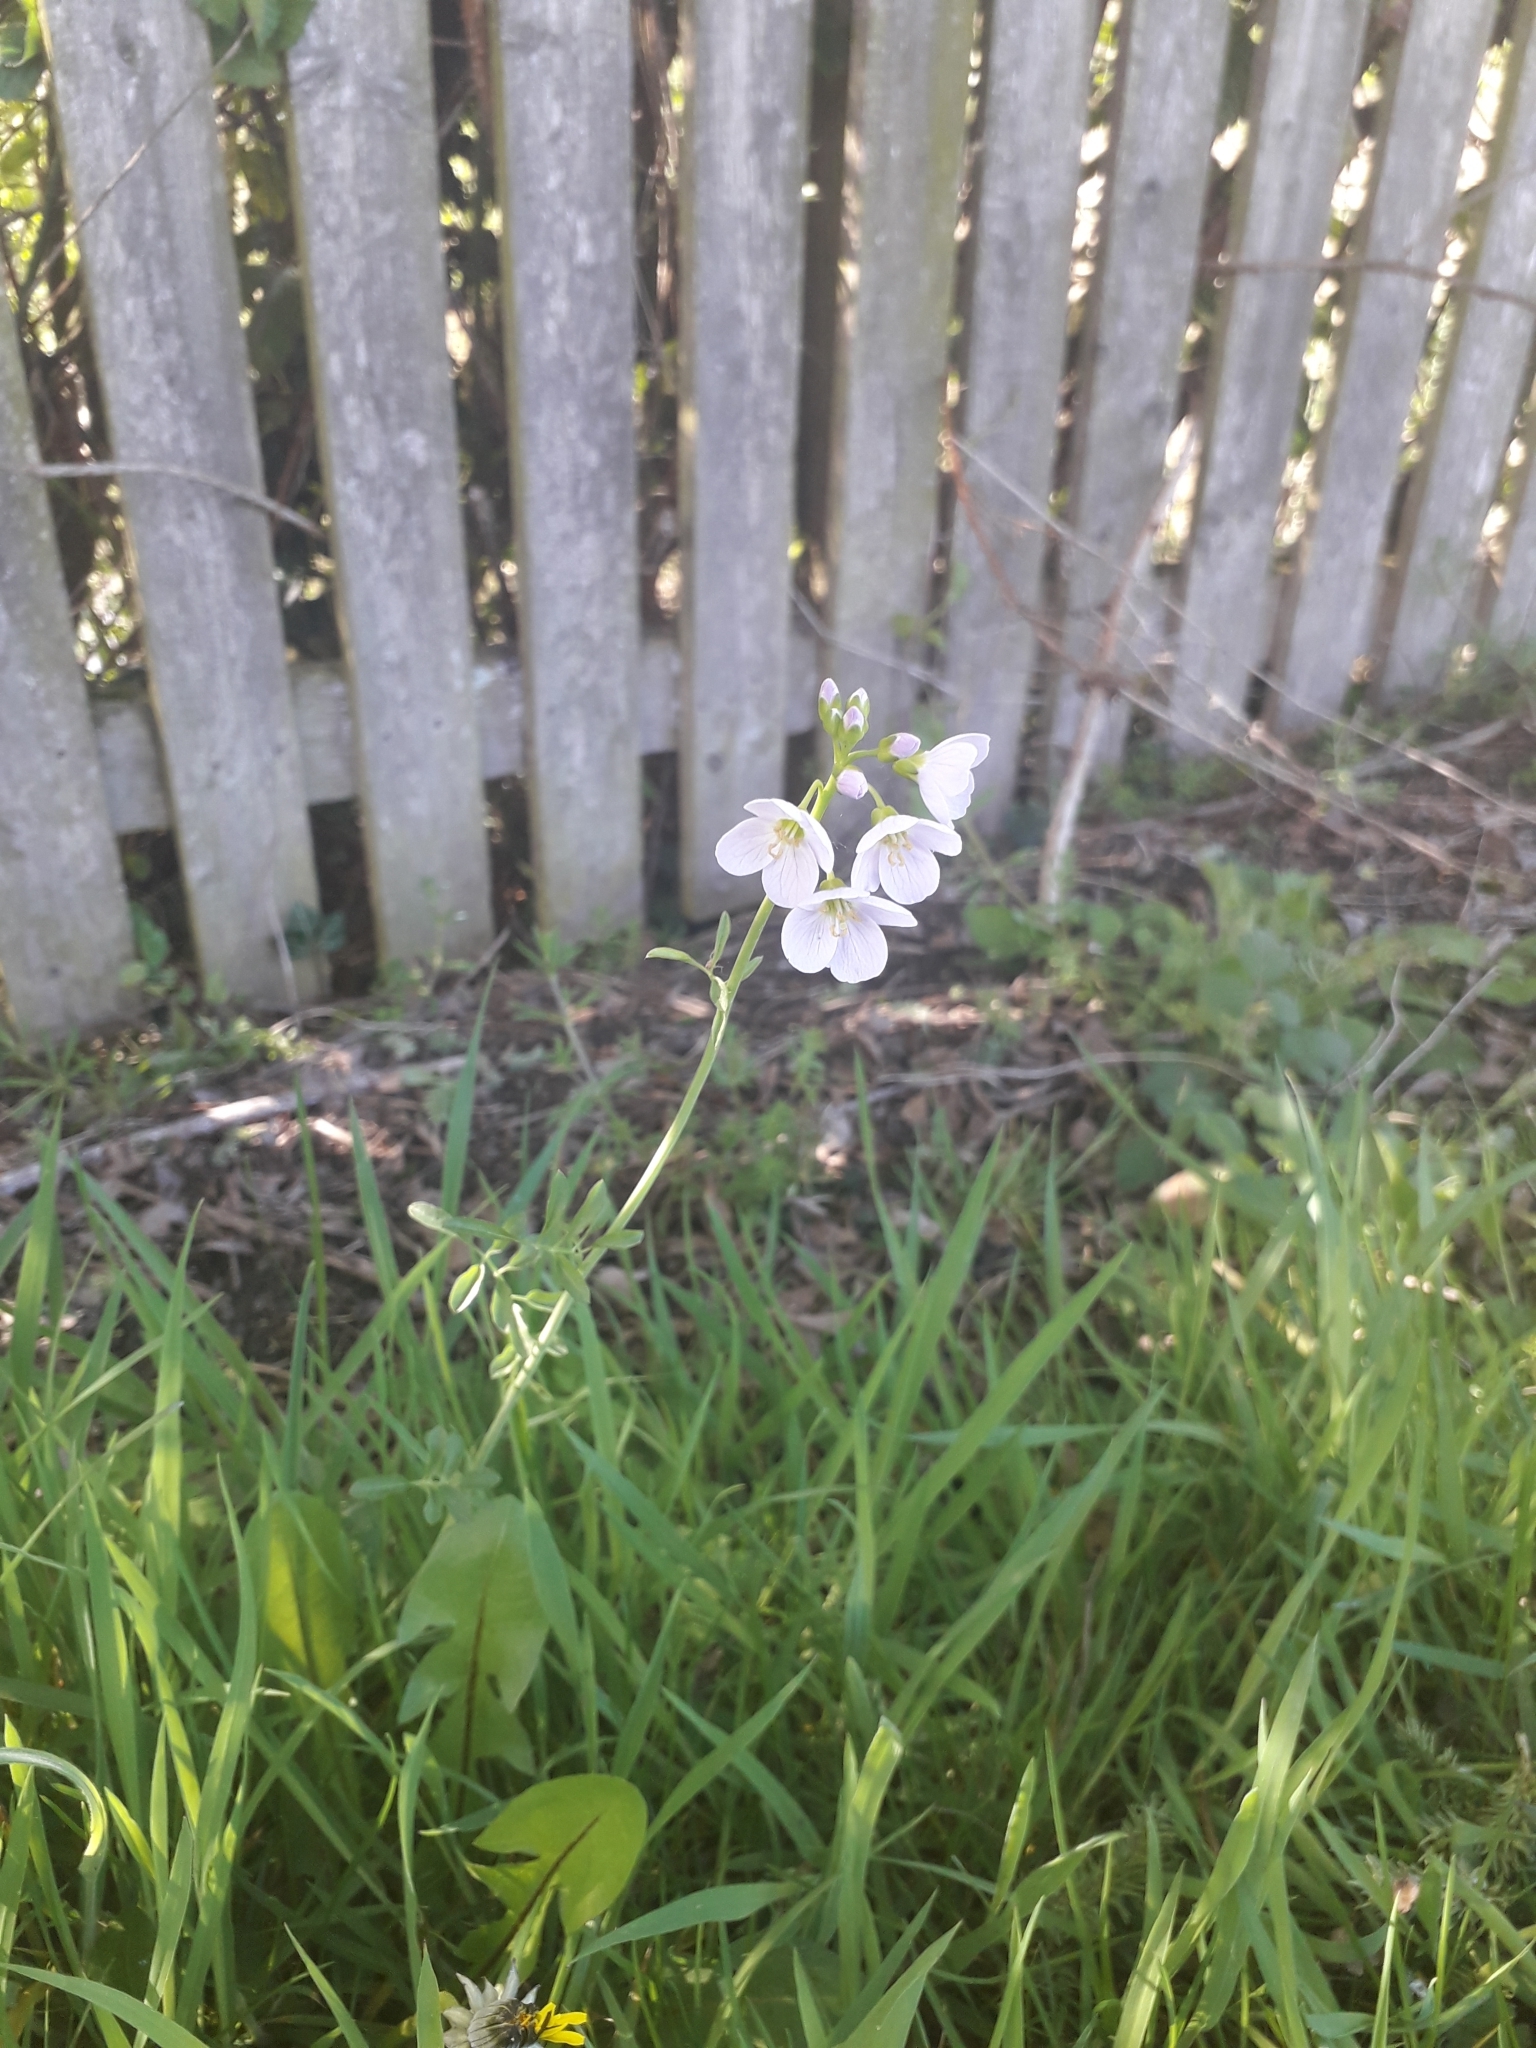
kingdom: Plantae
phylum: Tracheophyta
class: Magnoliopsida
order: Brassicales
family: Brassicaceae
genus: Cardamine
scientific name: Cardamine pratensis
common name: Cuckoo flower
